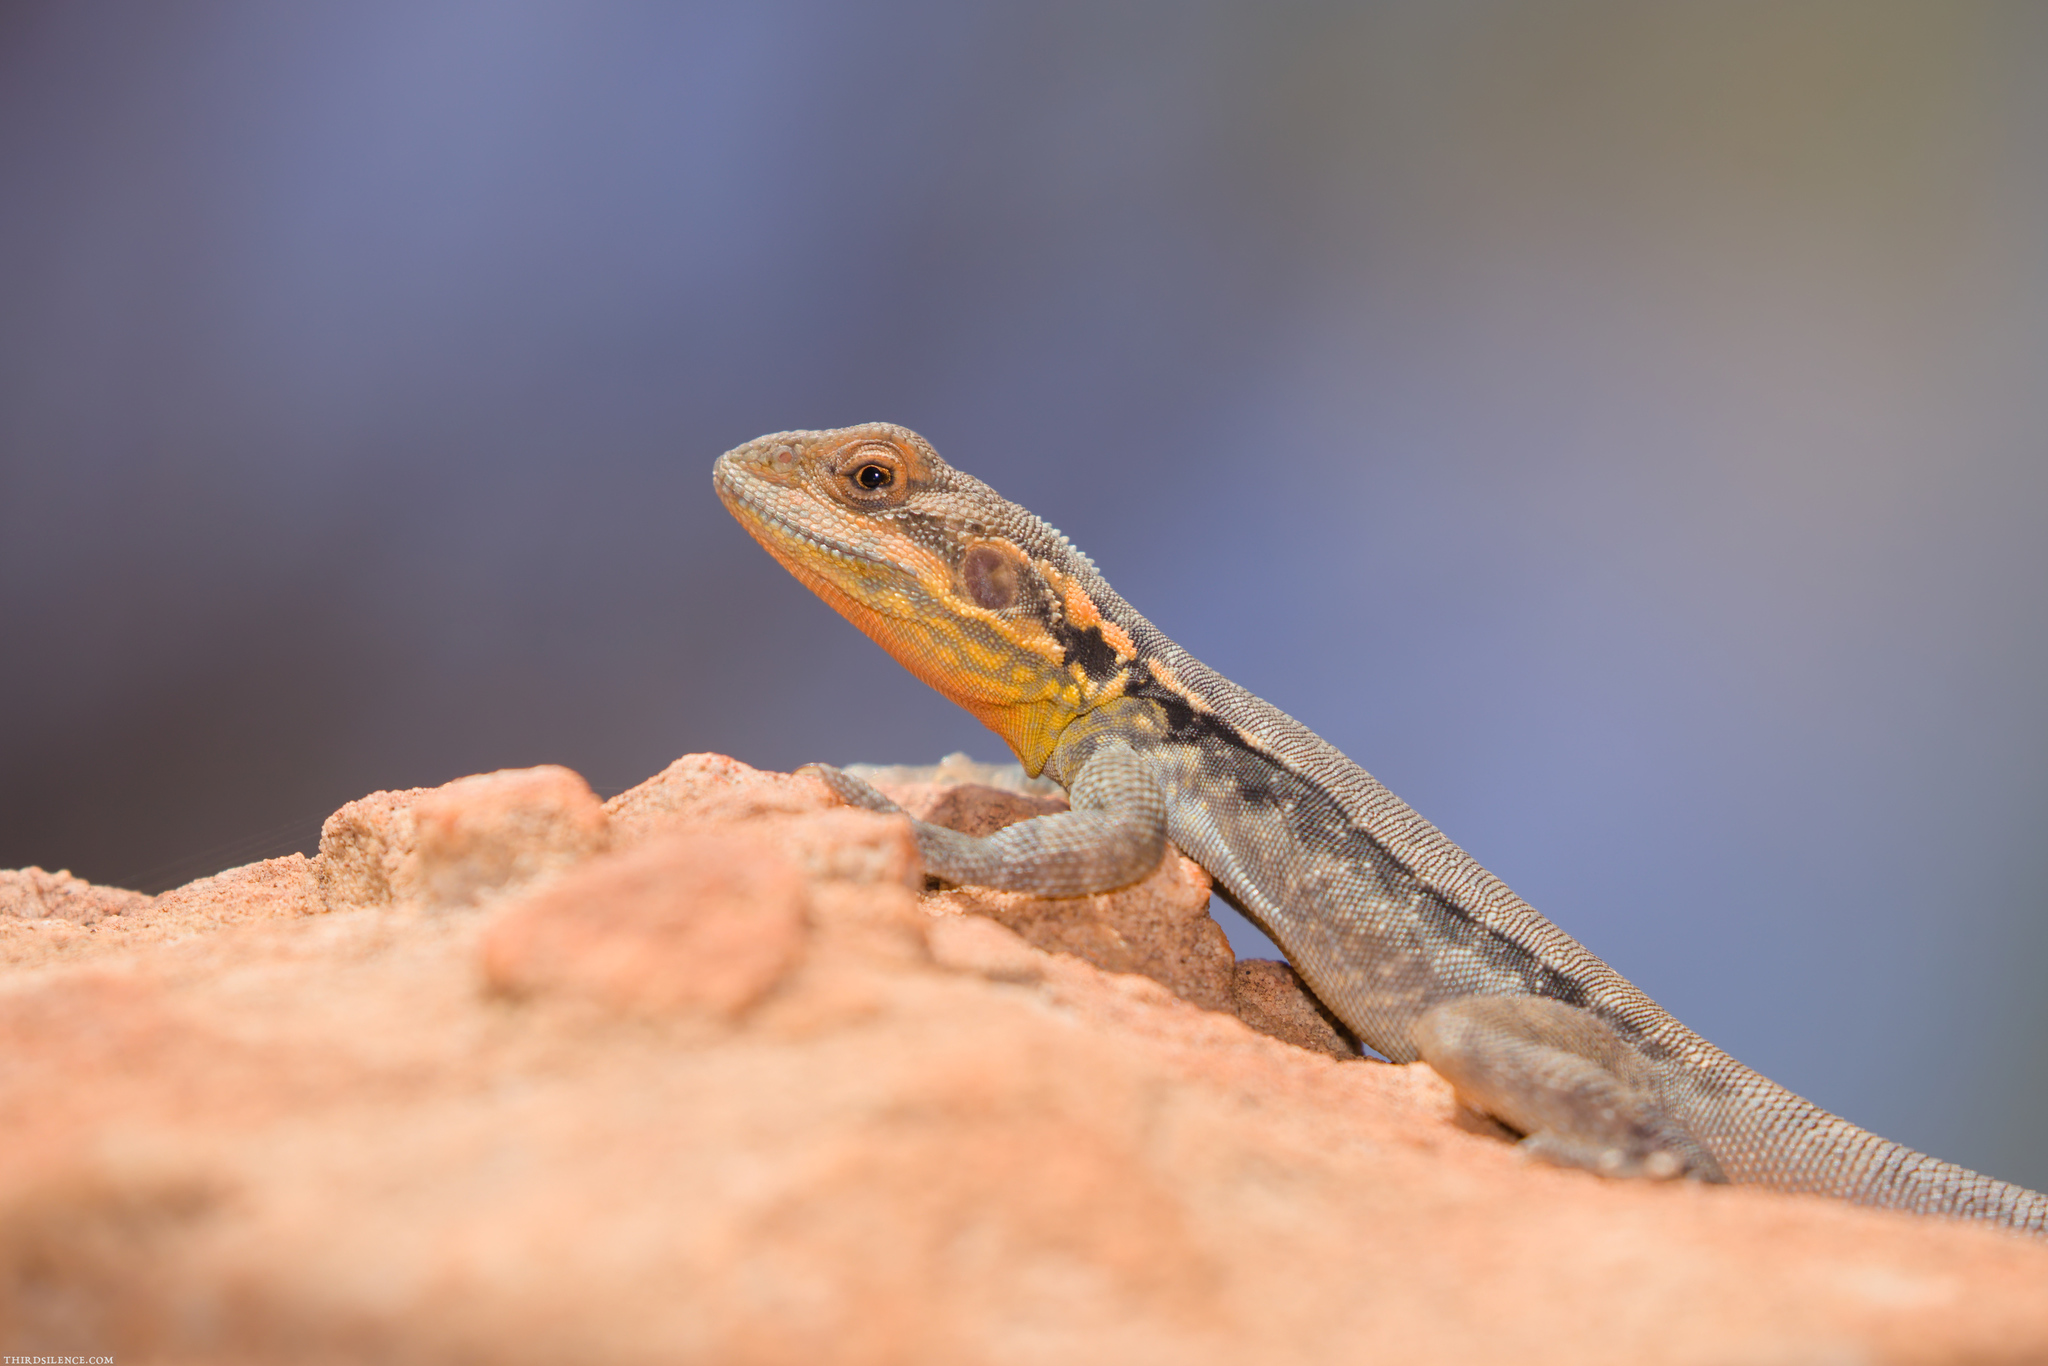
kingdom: Animalia
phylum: Chordata
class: Squamata
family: Agamidae
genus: Ctenophorus
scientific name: Ctenophorus modestus
